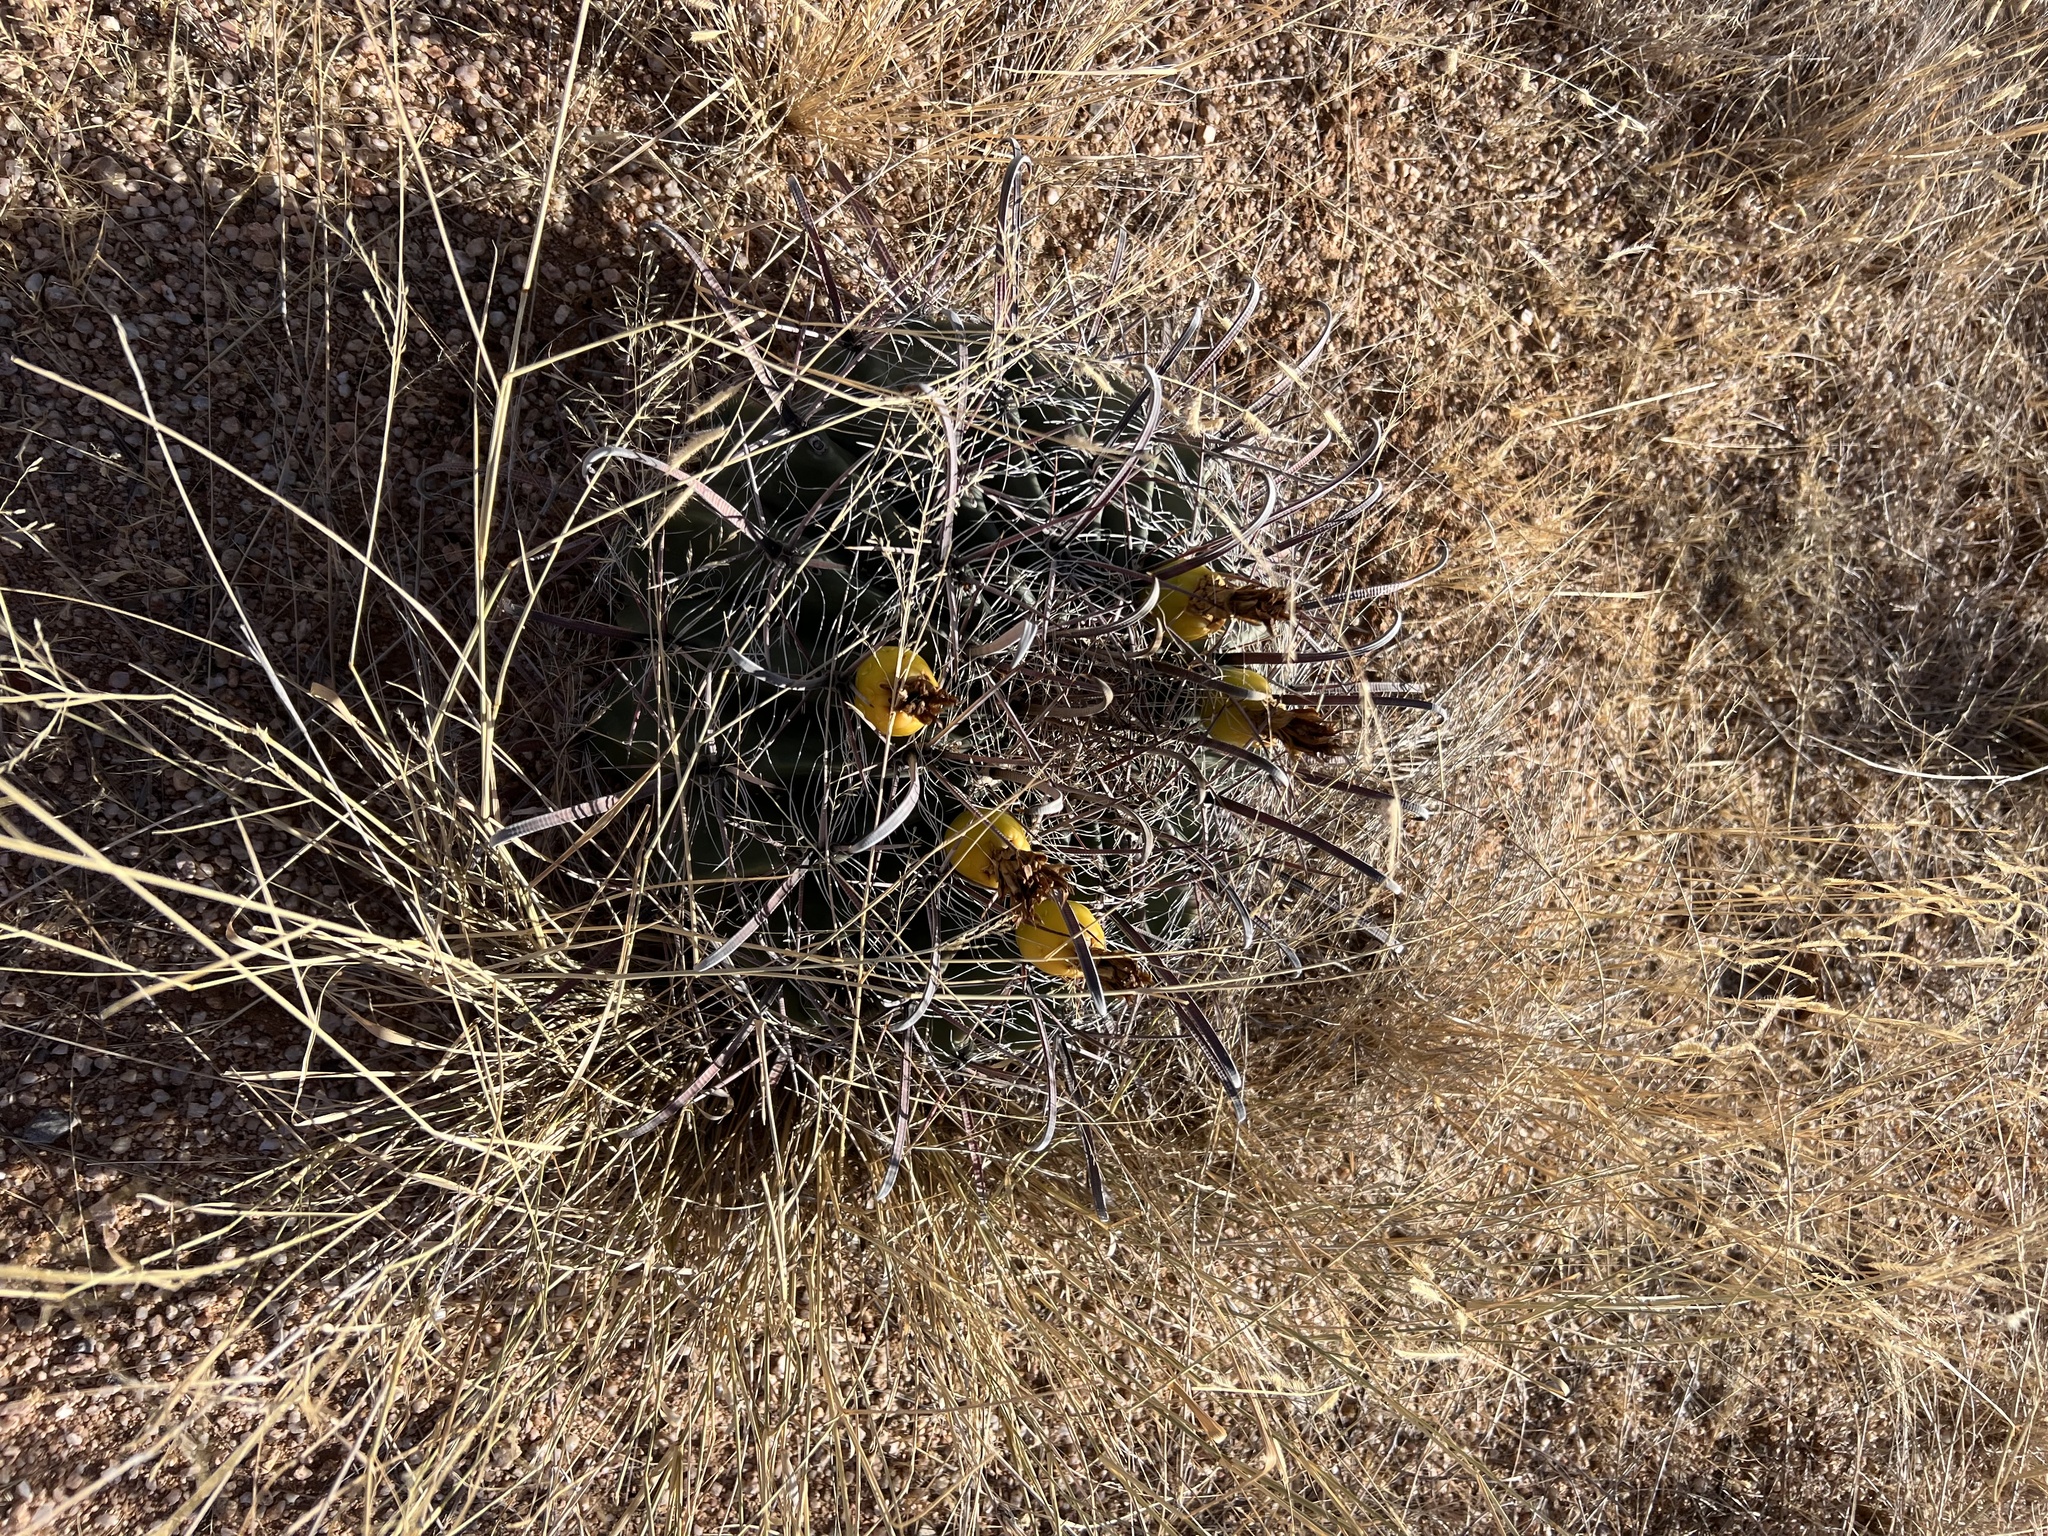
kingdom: Plantae
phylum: Tracheophyta
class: Magnoliopsida
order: Caryophyllales
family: Cactaceae
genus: Ferocactus
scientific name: Ferocactus wislizeni
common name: Candy barrel cactus
